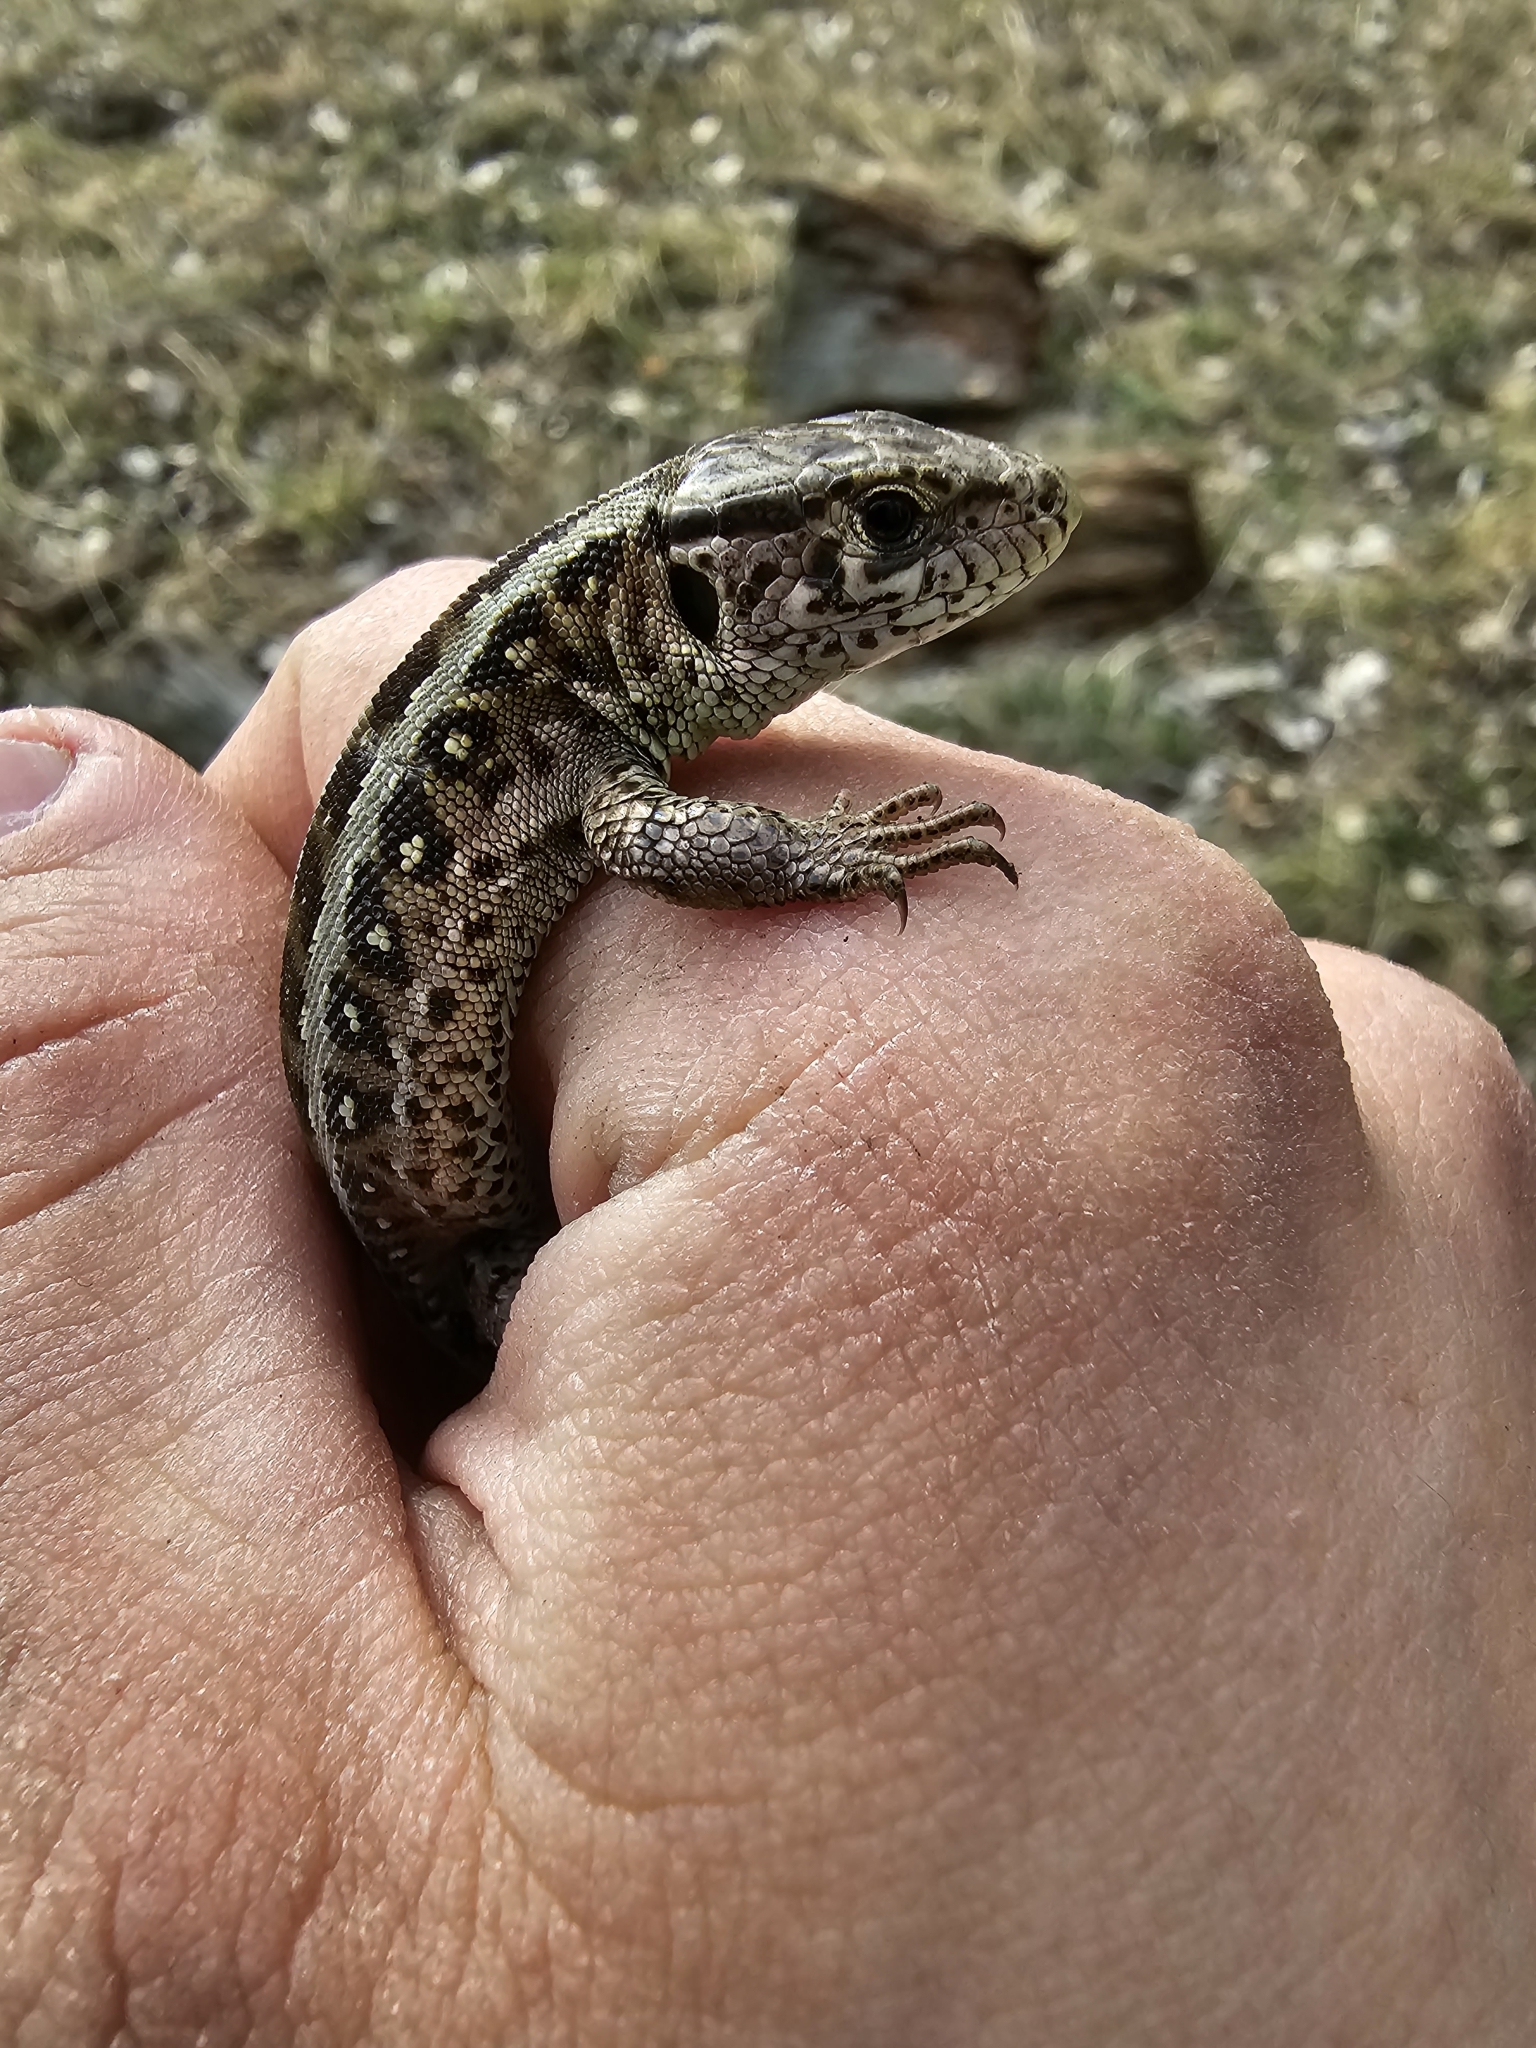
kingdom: Animalia
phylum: Chordata
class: Squamata
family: Lacertidae
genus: Lacerta
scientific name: Lacerta agilis
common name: Sand lizard
